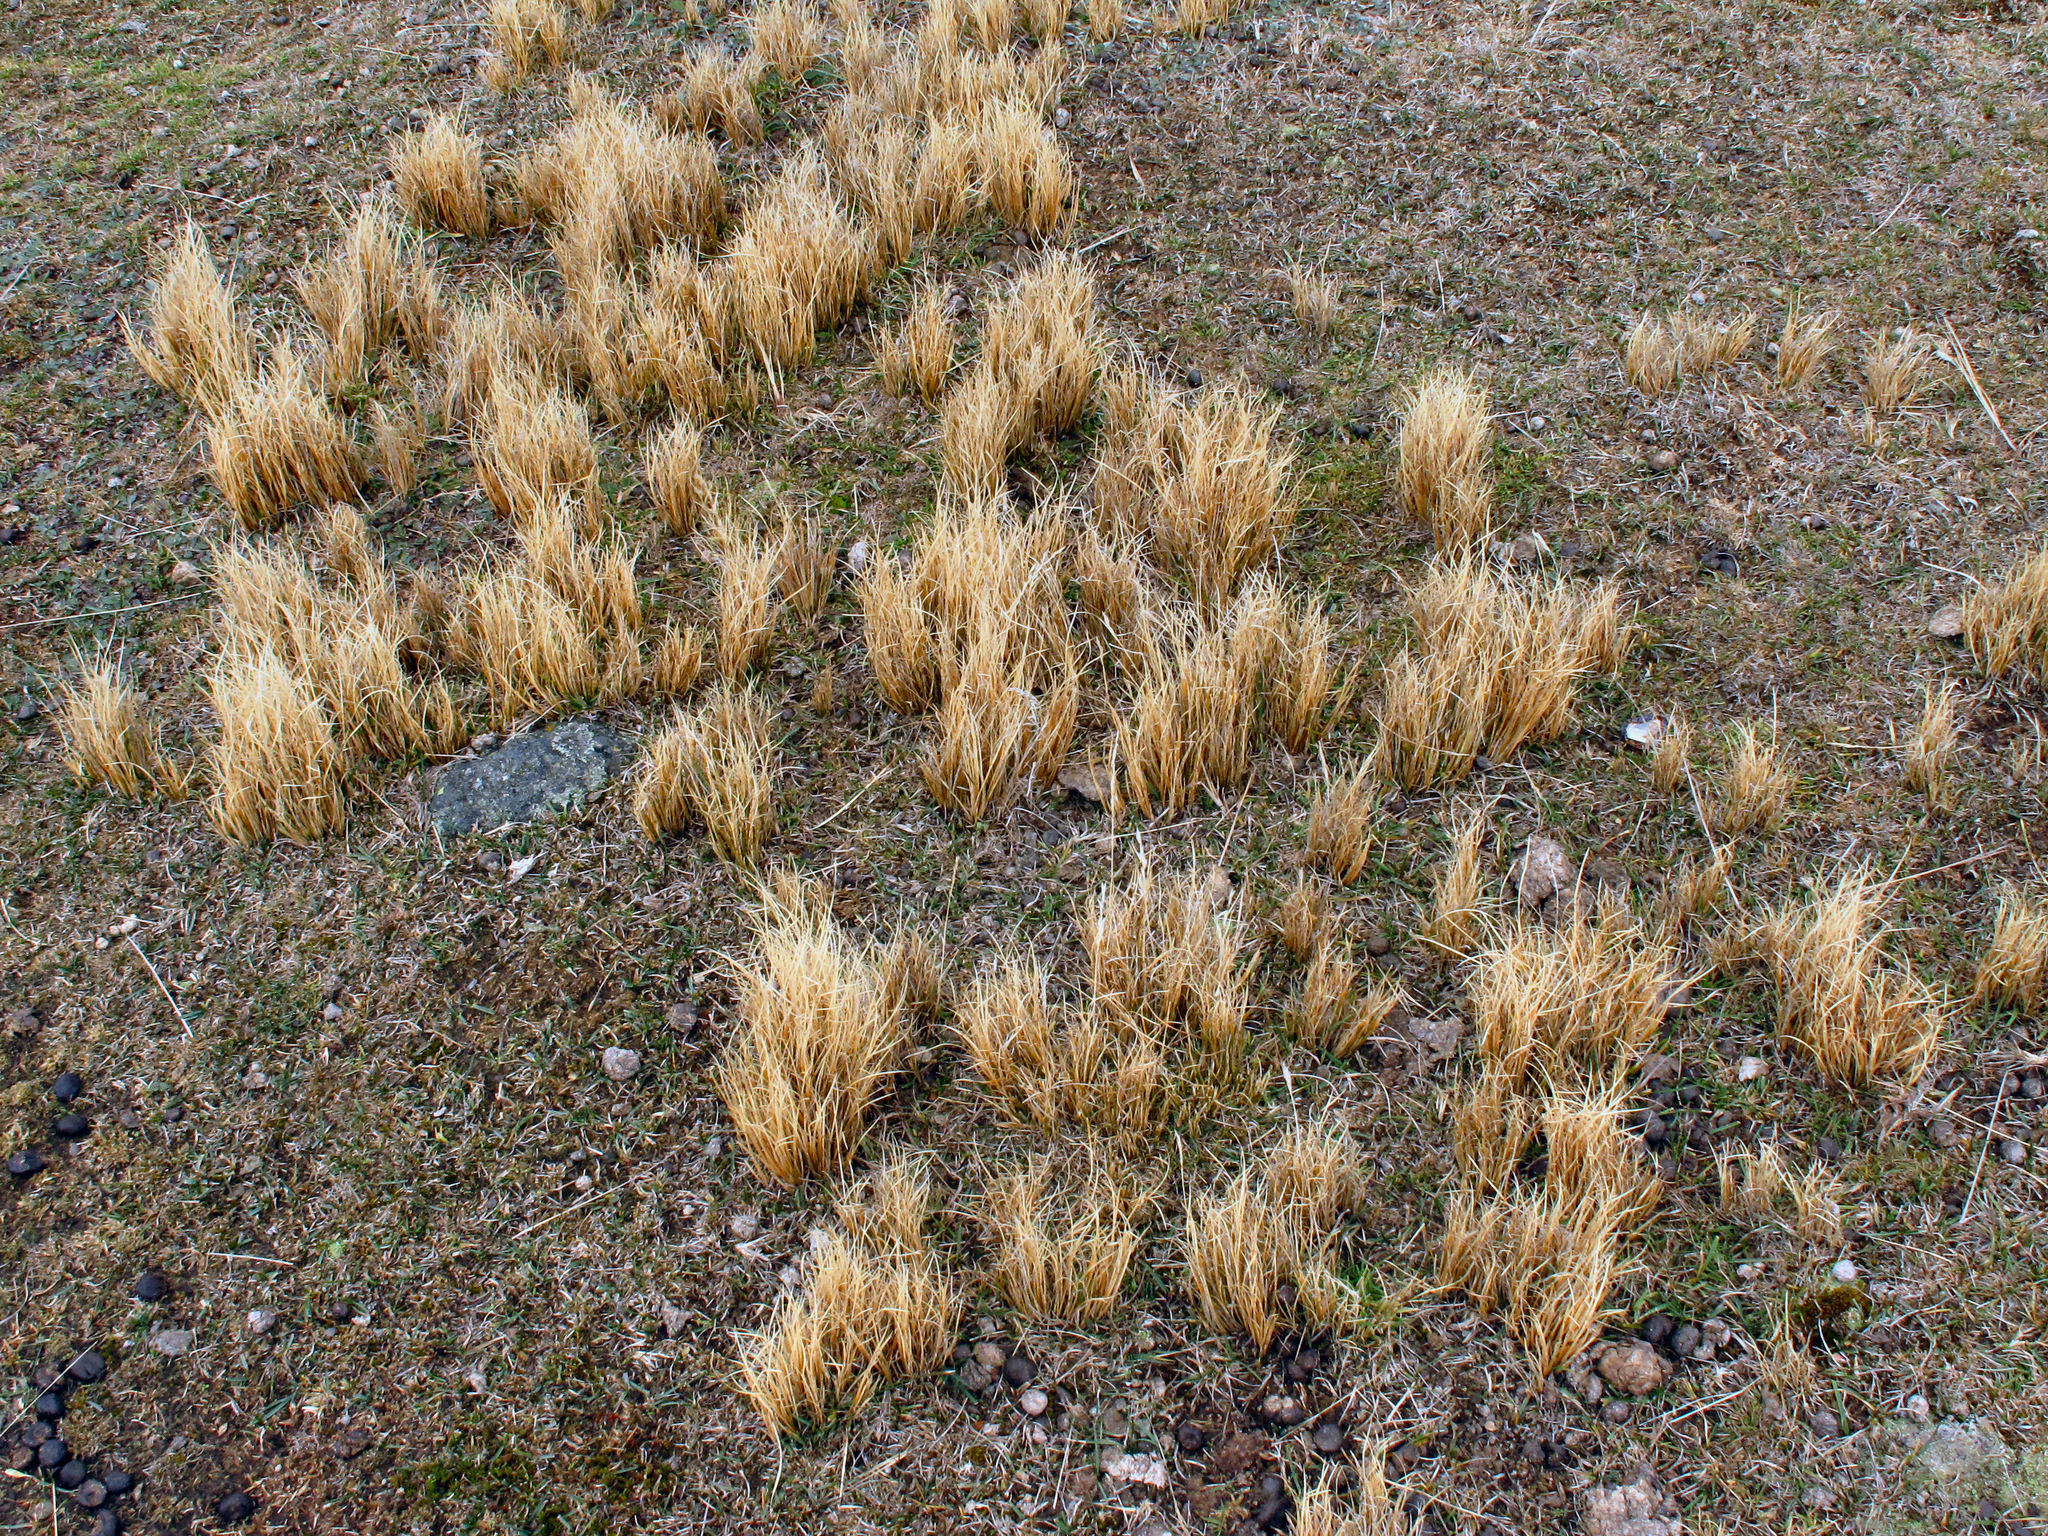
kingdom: Plantae
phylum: Tracheophyta
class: Liliopsida
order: Poales
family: Cyperaceae
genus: Carex
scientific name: Carex muelleri
